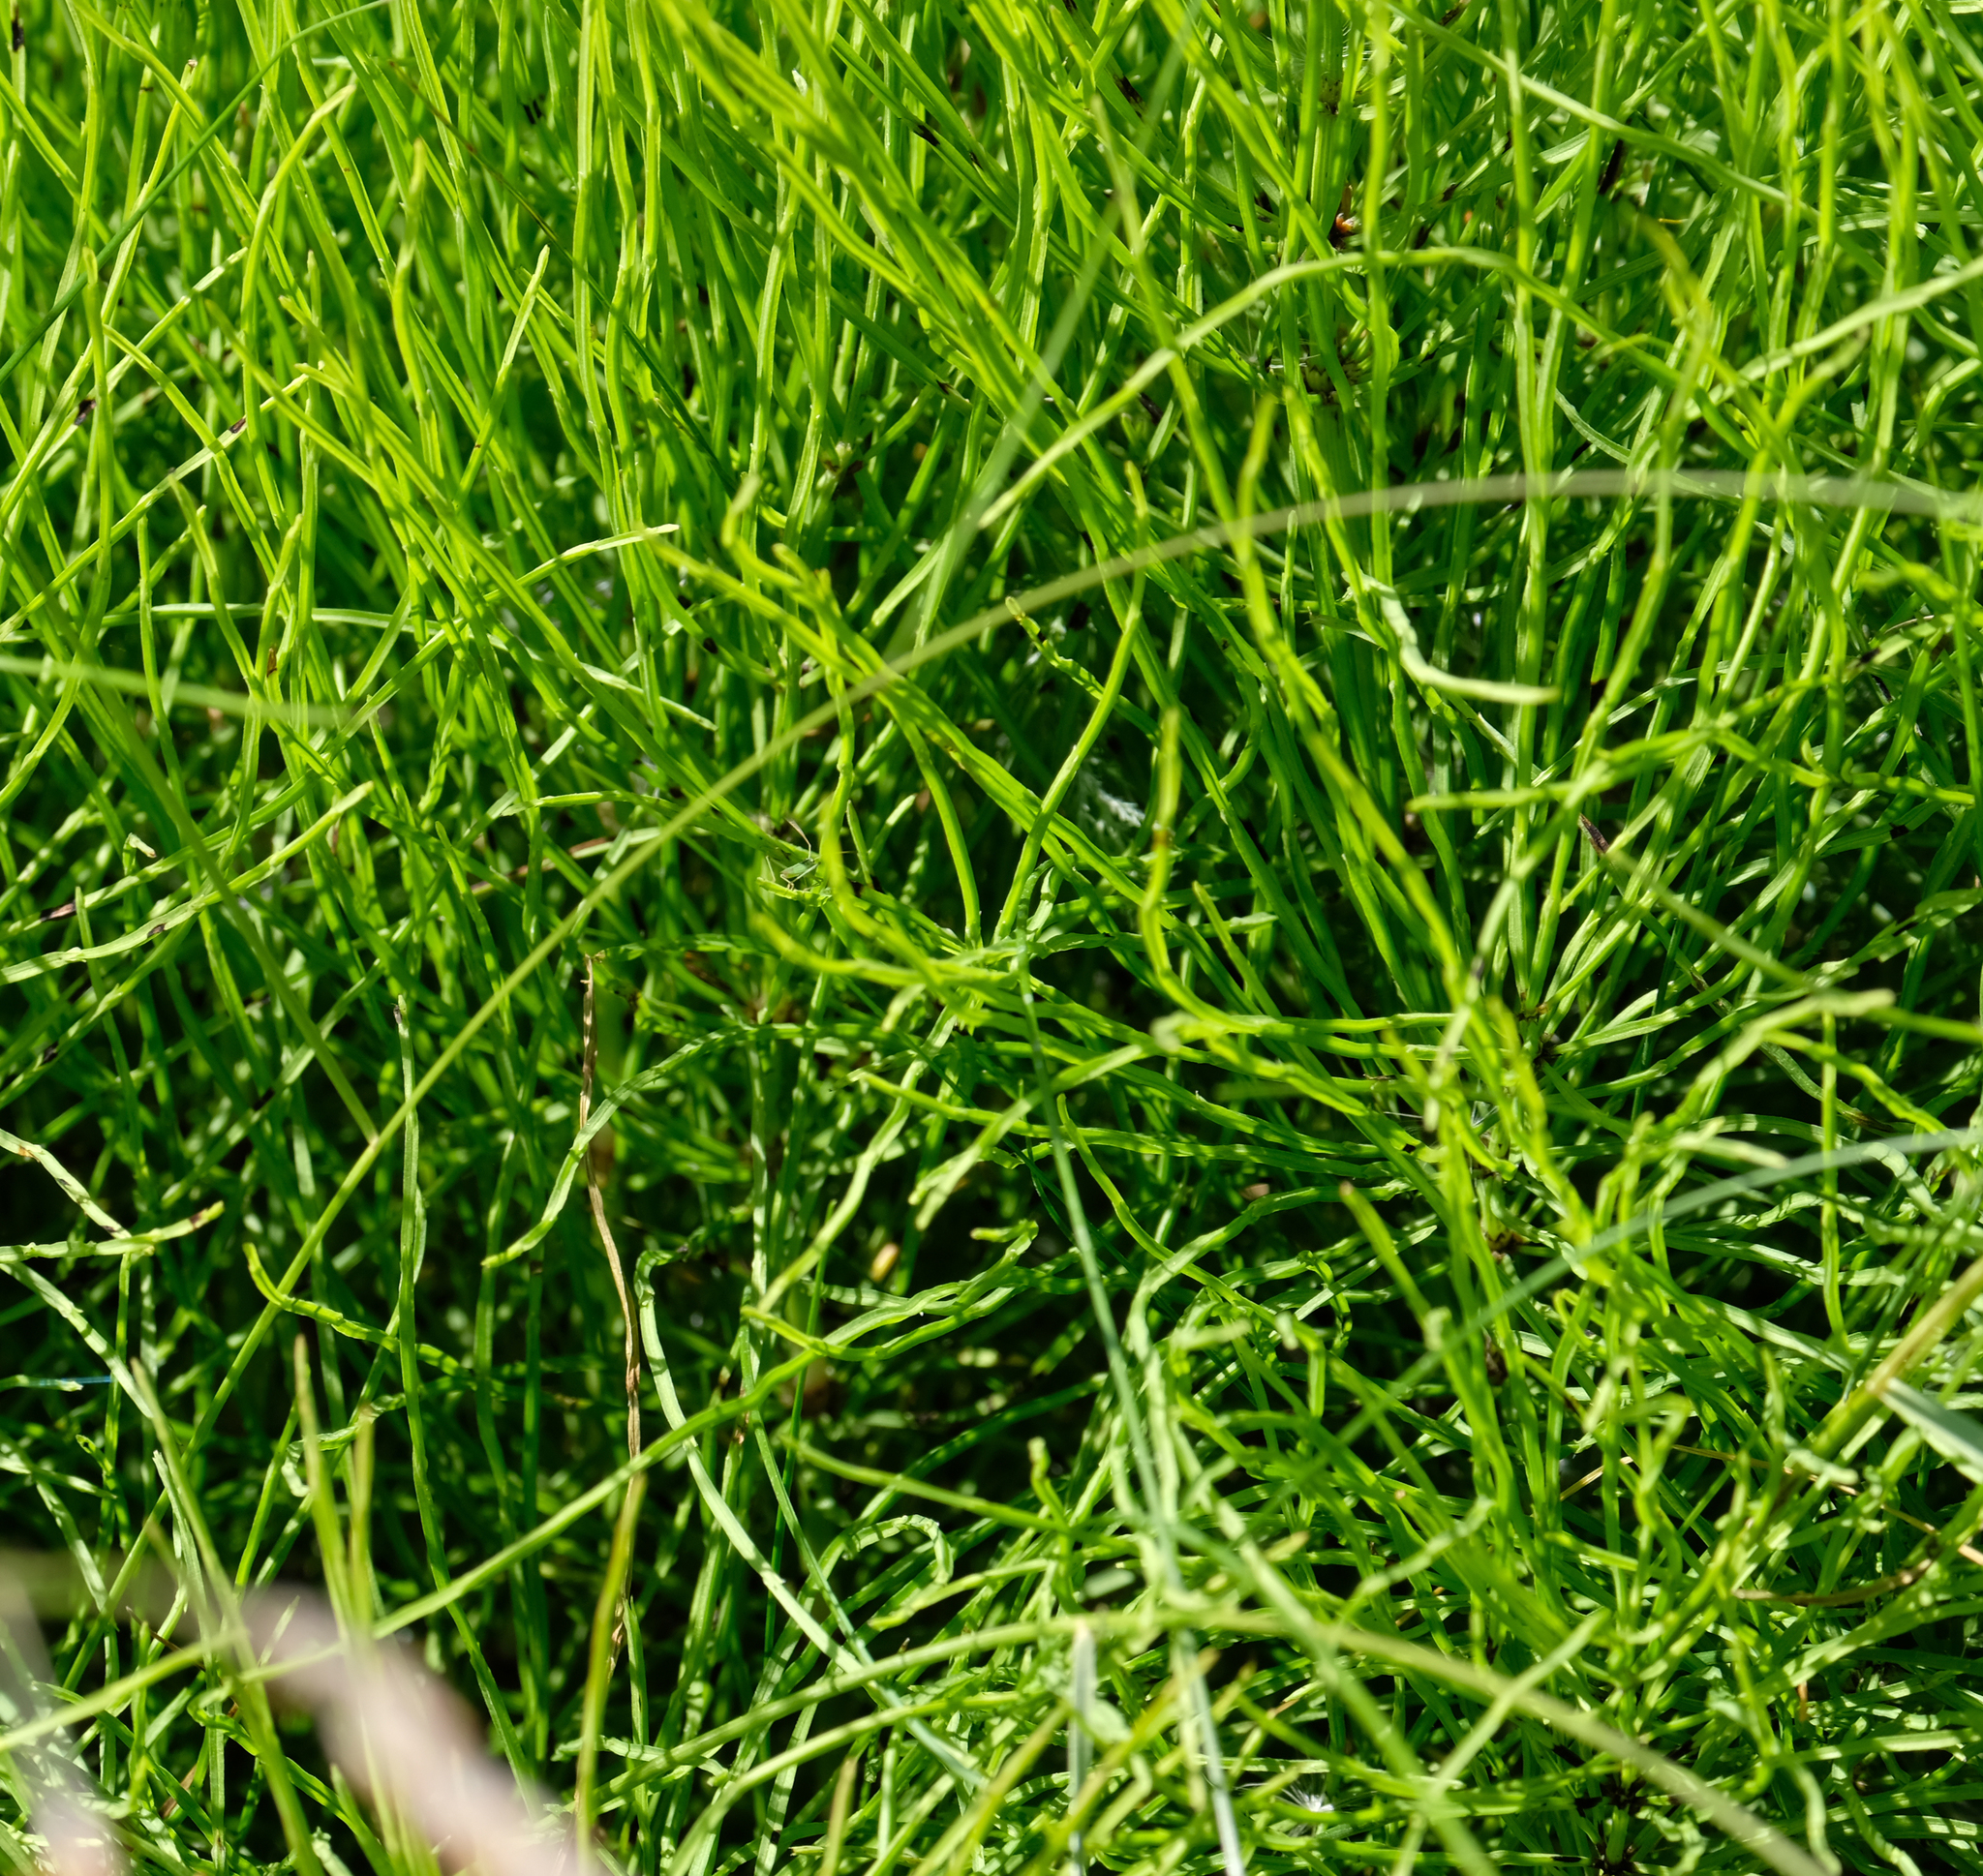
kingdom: Plantae
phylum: Tracheophyta
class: Polypodiopsida
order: Equisetales
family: Equisetaceae
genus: Equisetum
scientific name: Equisetum arvense
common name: Field horsetail
